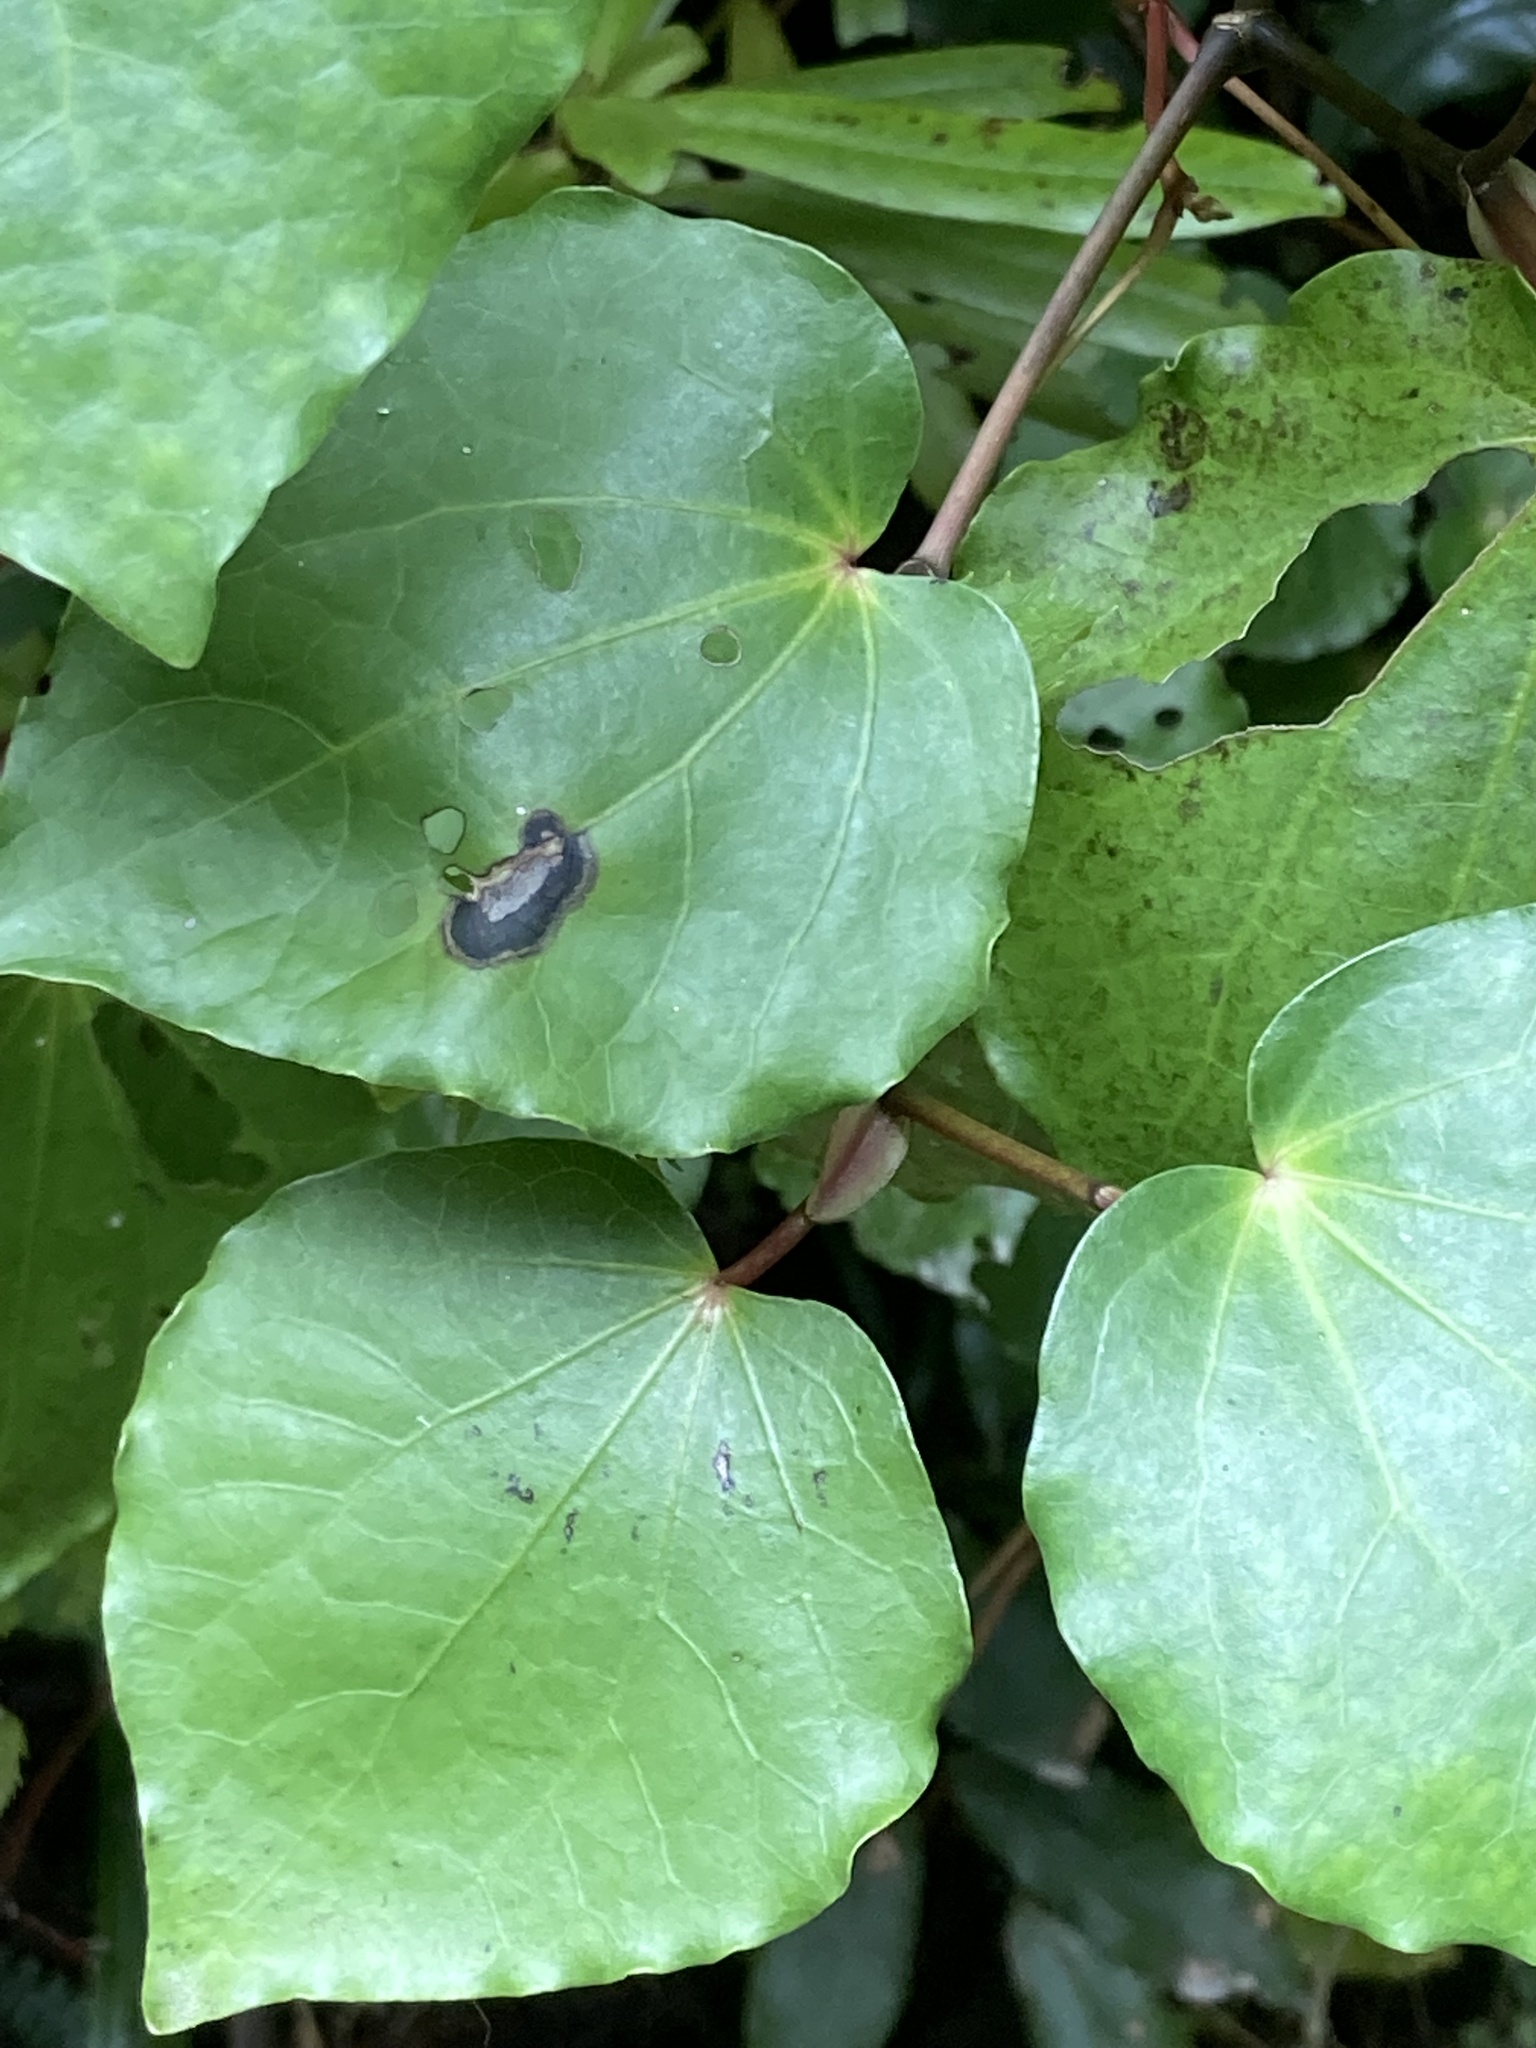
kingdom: Plantae
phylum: Tracheophyta
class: Magnoliopsida
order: Piperales
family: Piperaceae
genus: Macropiper
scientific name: Macropiper excelsum
